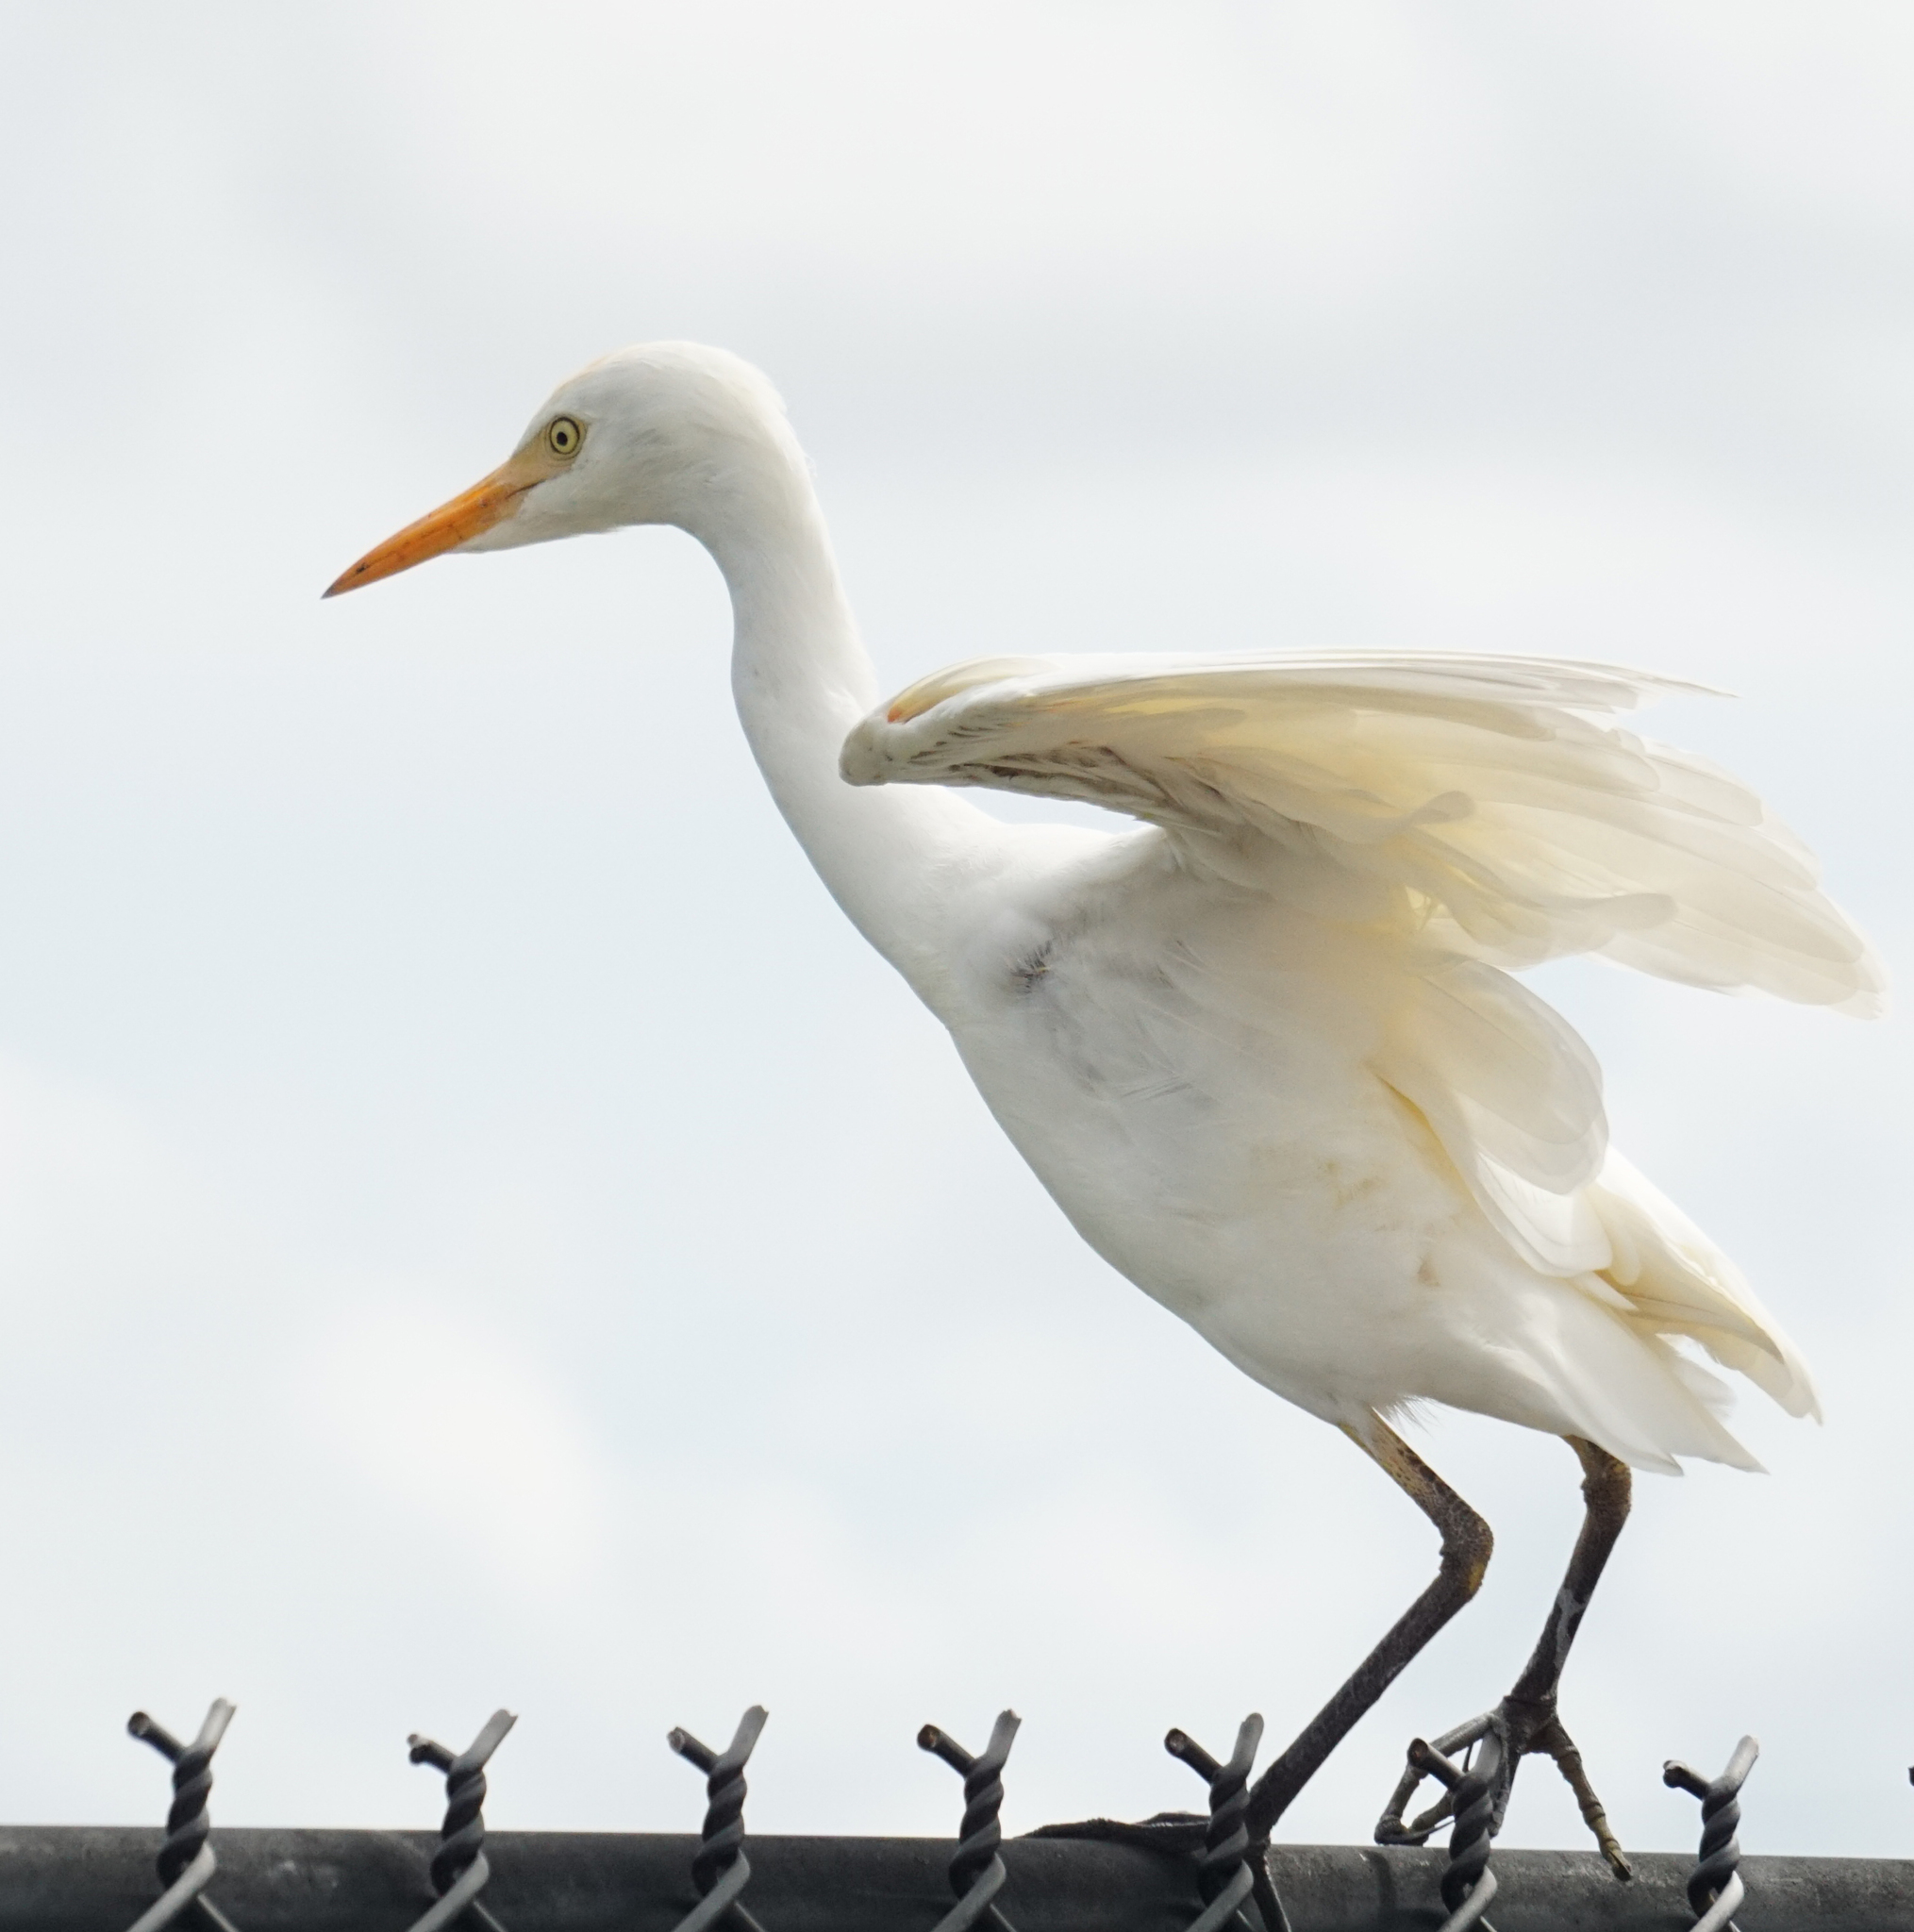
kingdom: Animalia
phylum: Chordata
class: Aves
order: Pelecaniformes
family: Ardeidae
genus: Bubulcus
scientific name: Bubulcus ibis
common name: Cattle egret
